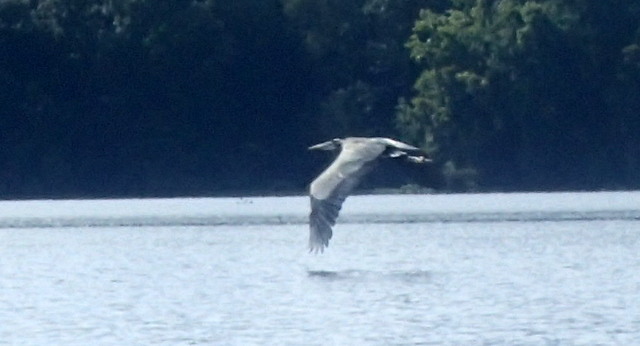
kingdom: Animalia
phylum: Chordata
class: Aves
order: Pelecaniformes
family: Ardeidae
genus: Ardea
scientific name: Ardea herodias
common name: Great blue heron
